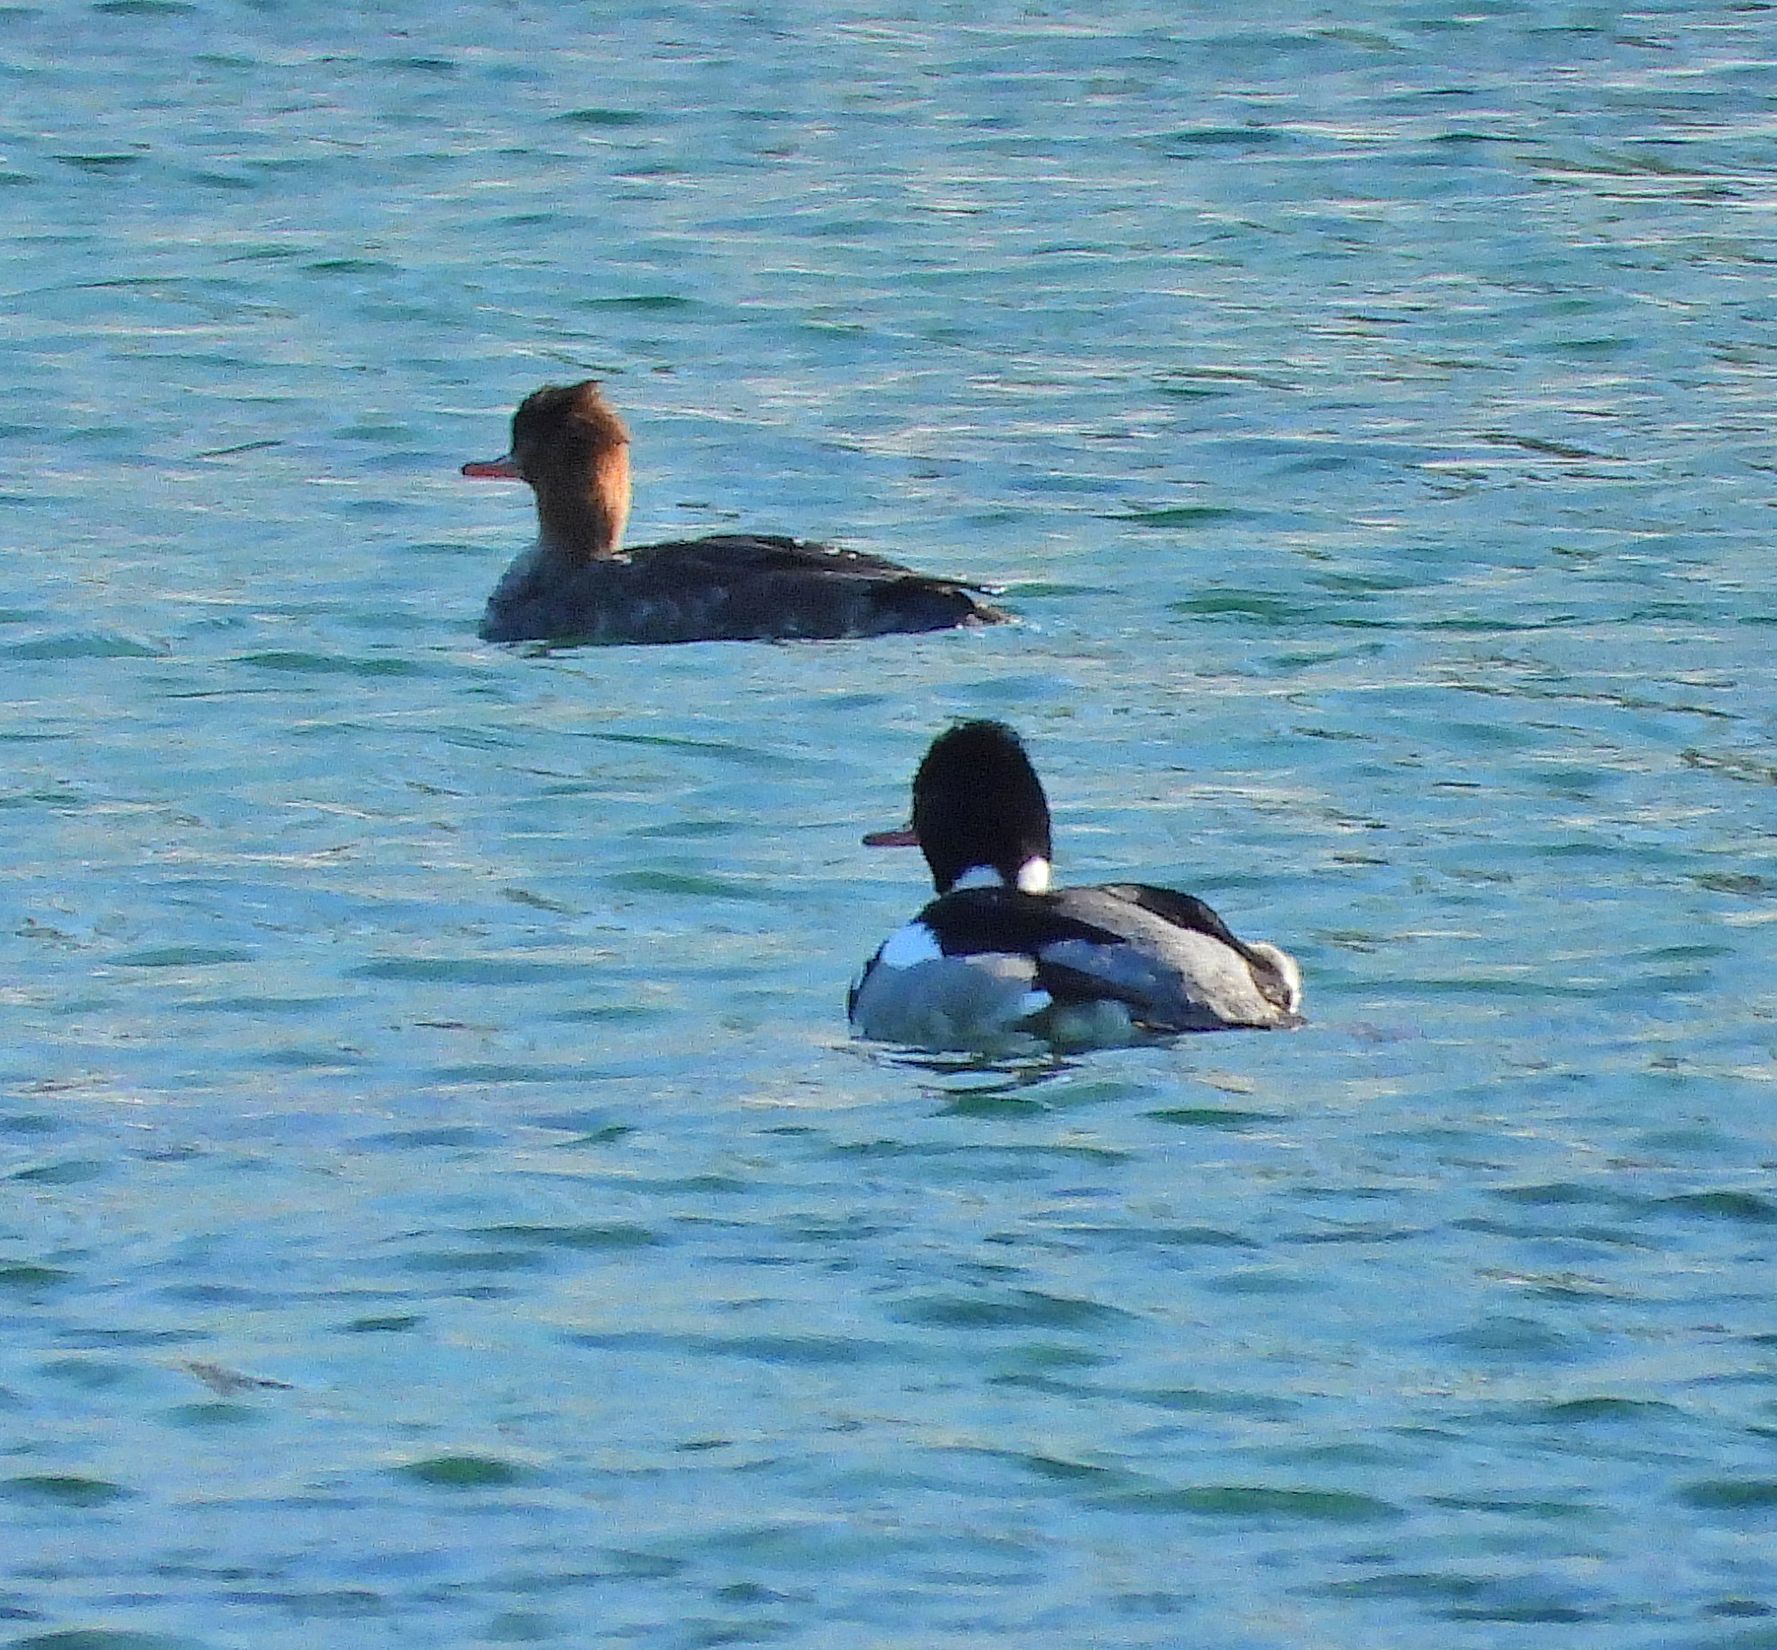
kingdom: Animalia
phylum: Chordata
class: Aves
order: Anseriformes
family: Anatidae
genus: Mergus
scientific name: Mergus serrator
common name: Red-breasted merganser
